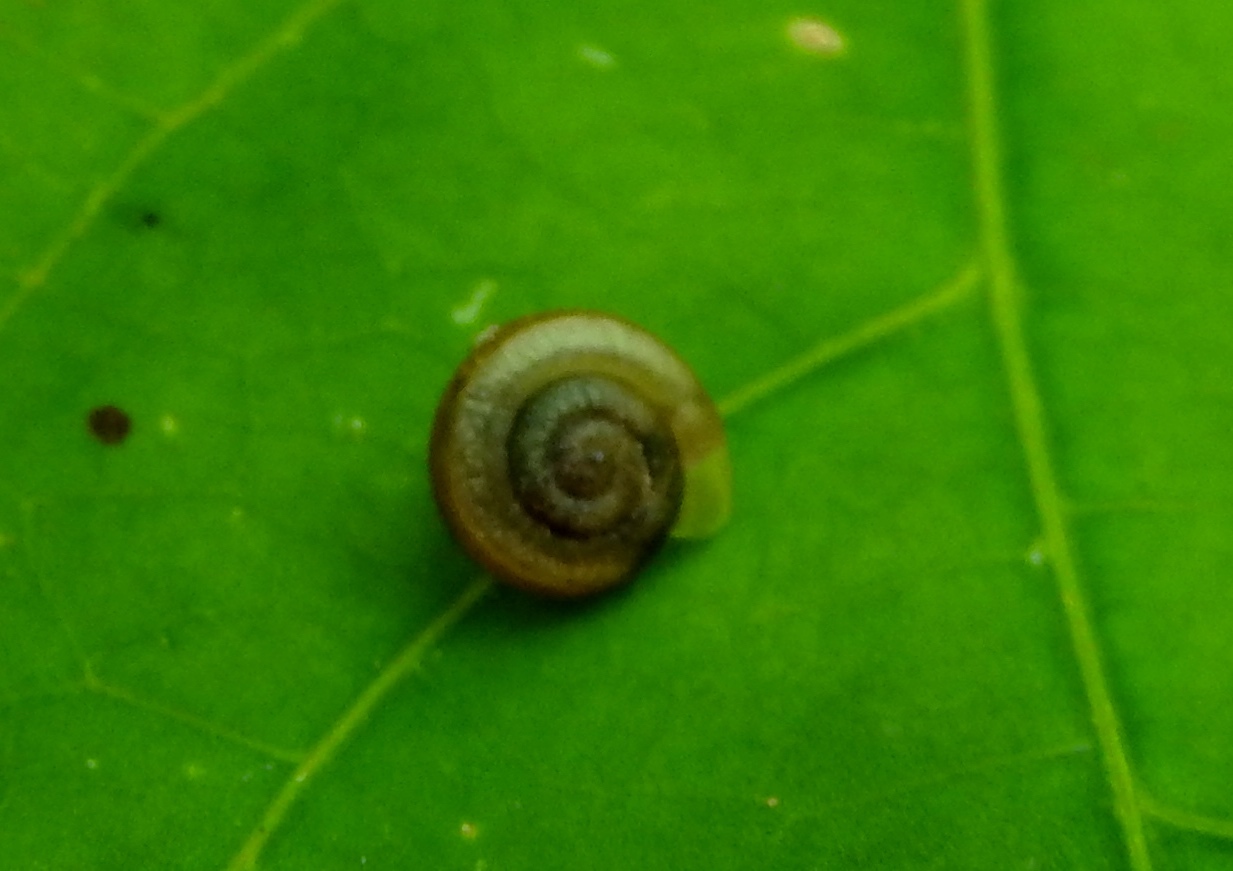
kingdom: Animalia
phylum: Mollusca
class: Gastropoda
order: Stylommatophora
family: Polygyridae
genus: Linisa
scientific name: Linisa
